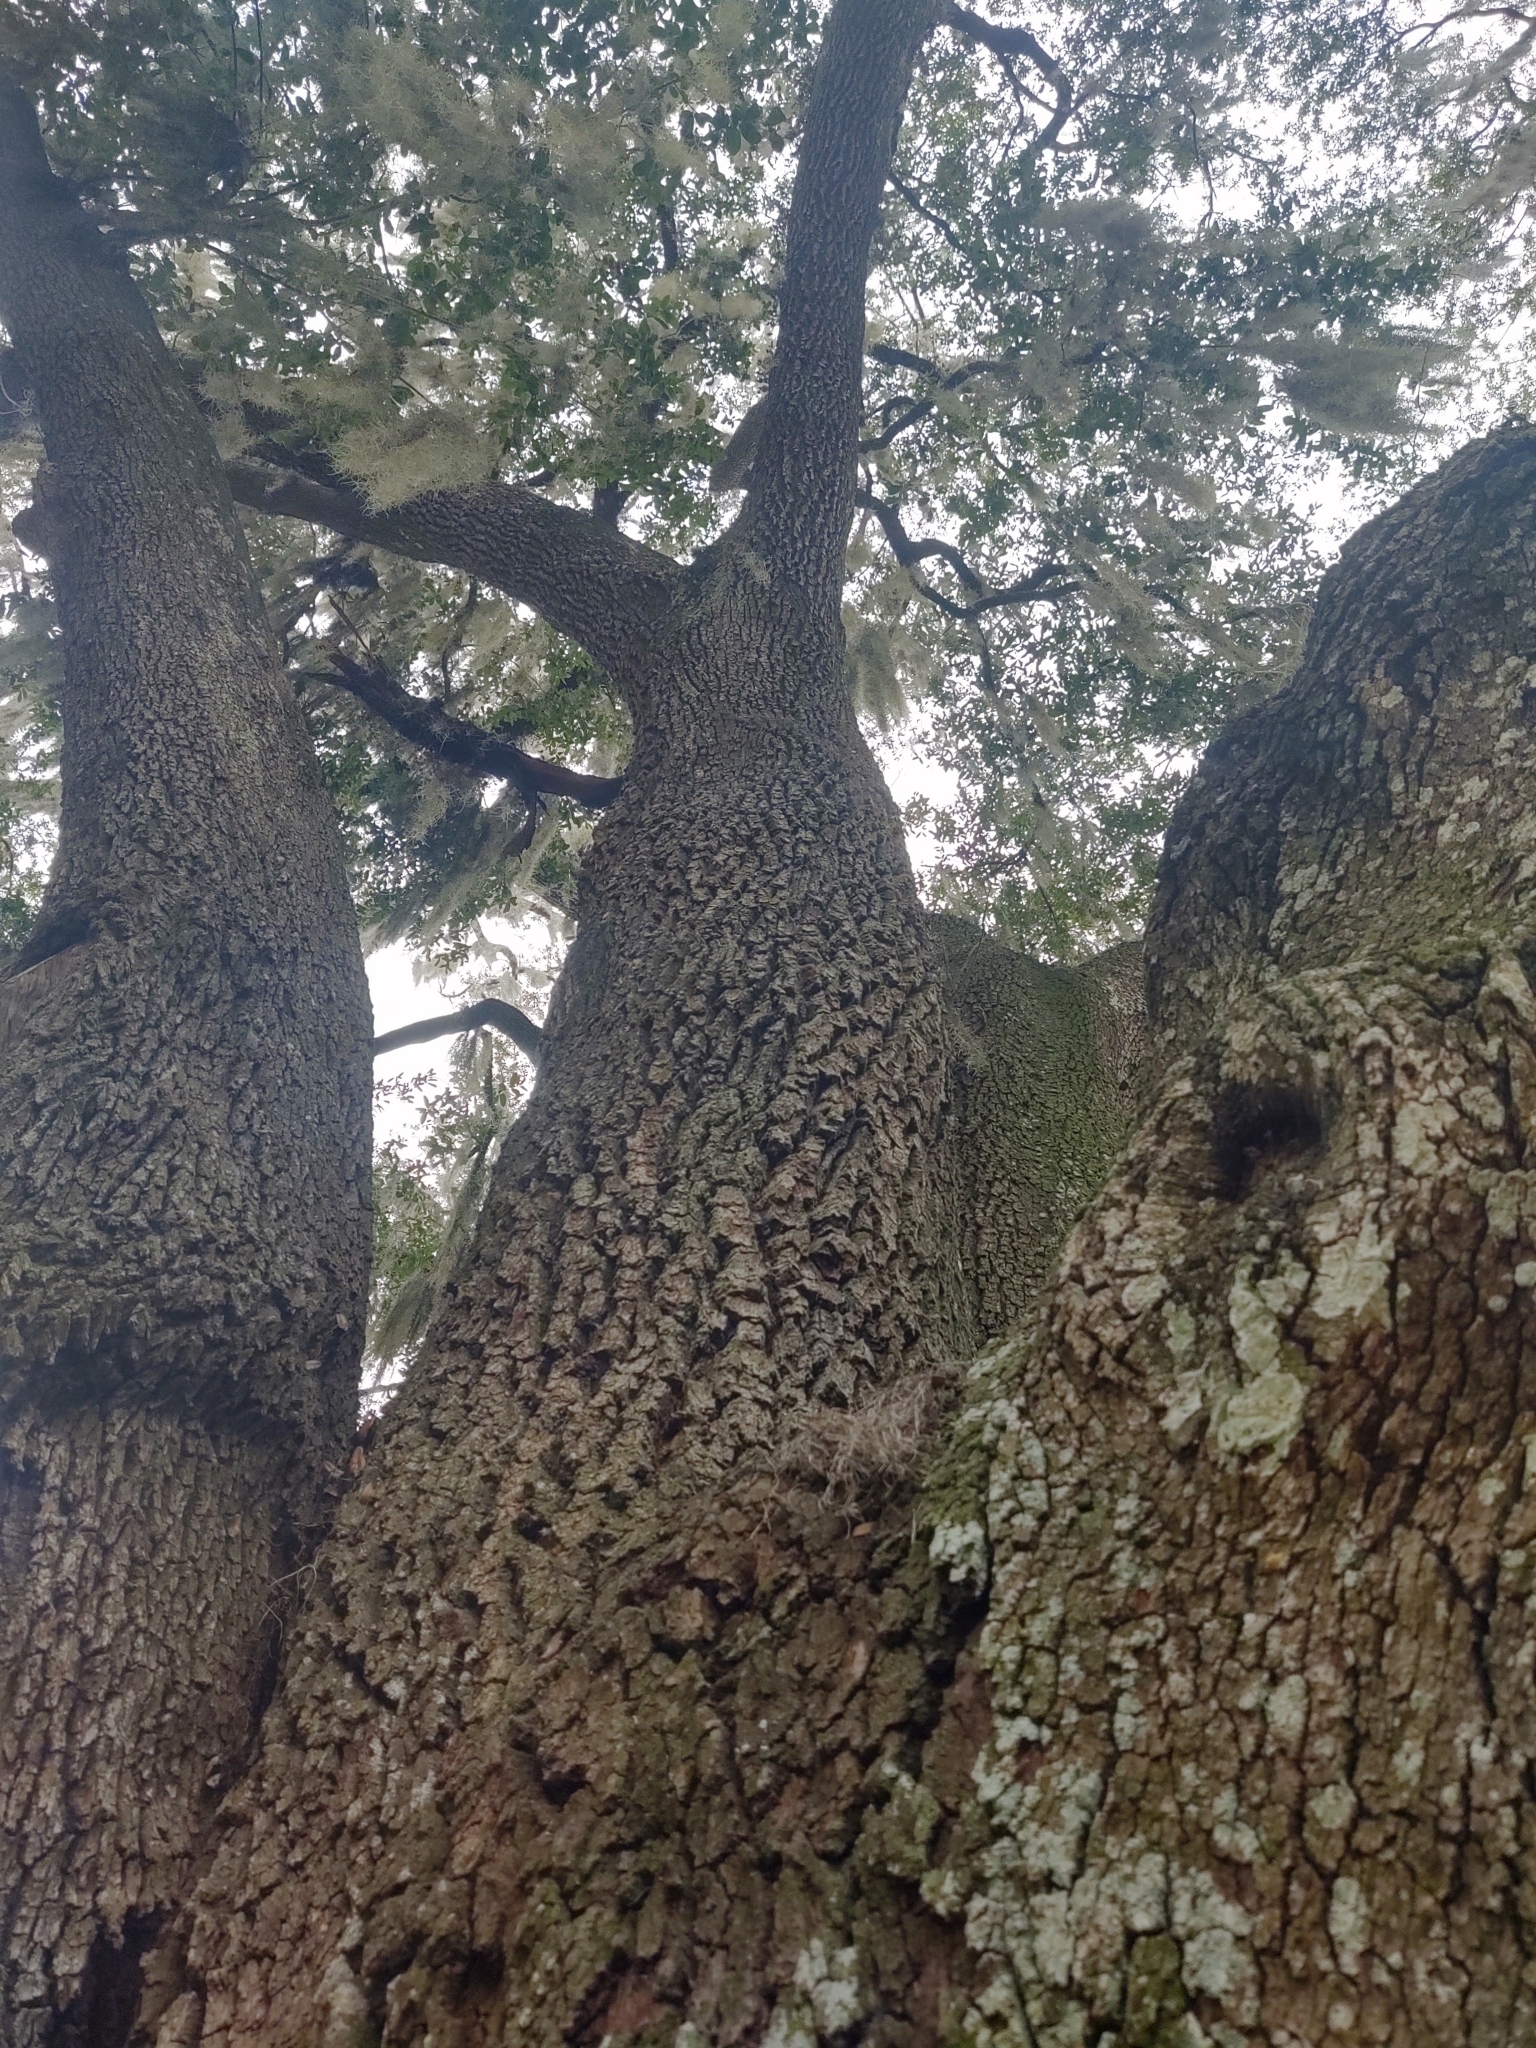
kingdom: Plantae
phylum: Tracheophyta
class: Magnoliopsida
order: Fagales
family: Fagaceae
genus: Quercus
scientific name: Quercus virginiana
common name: Southern live oak
